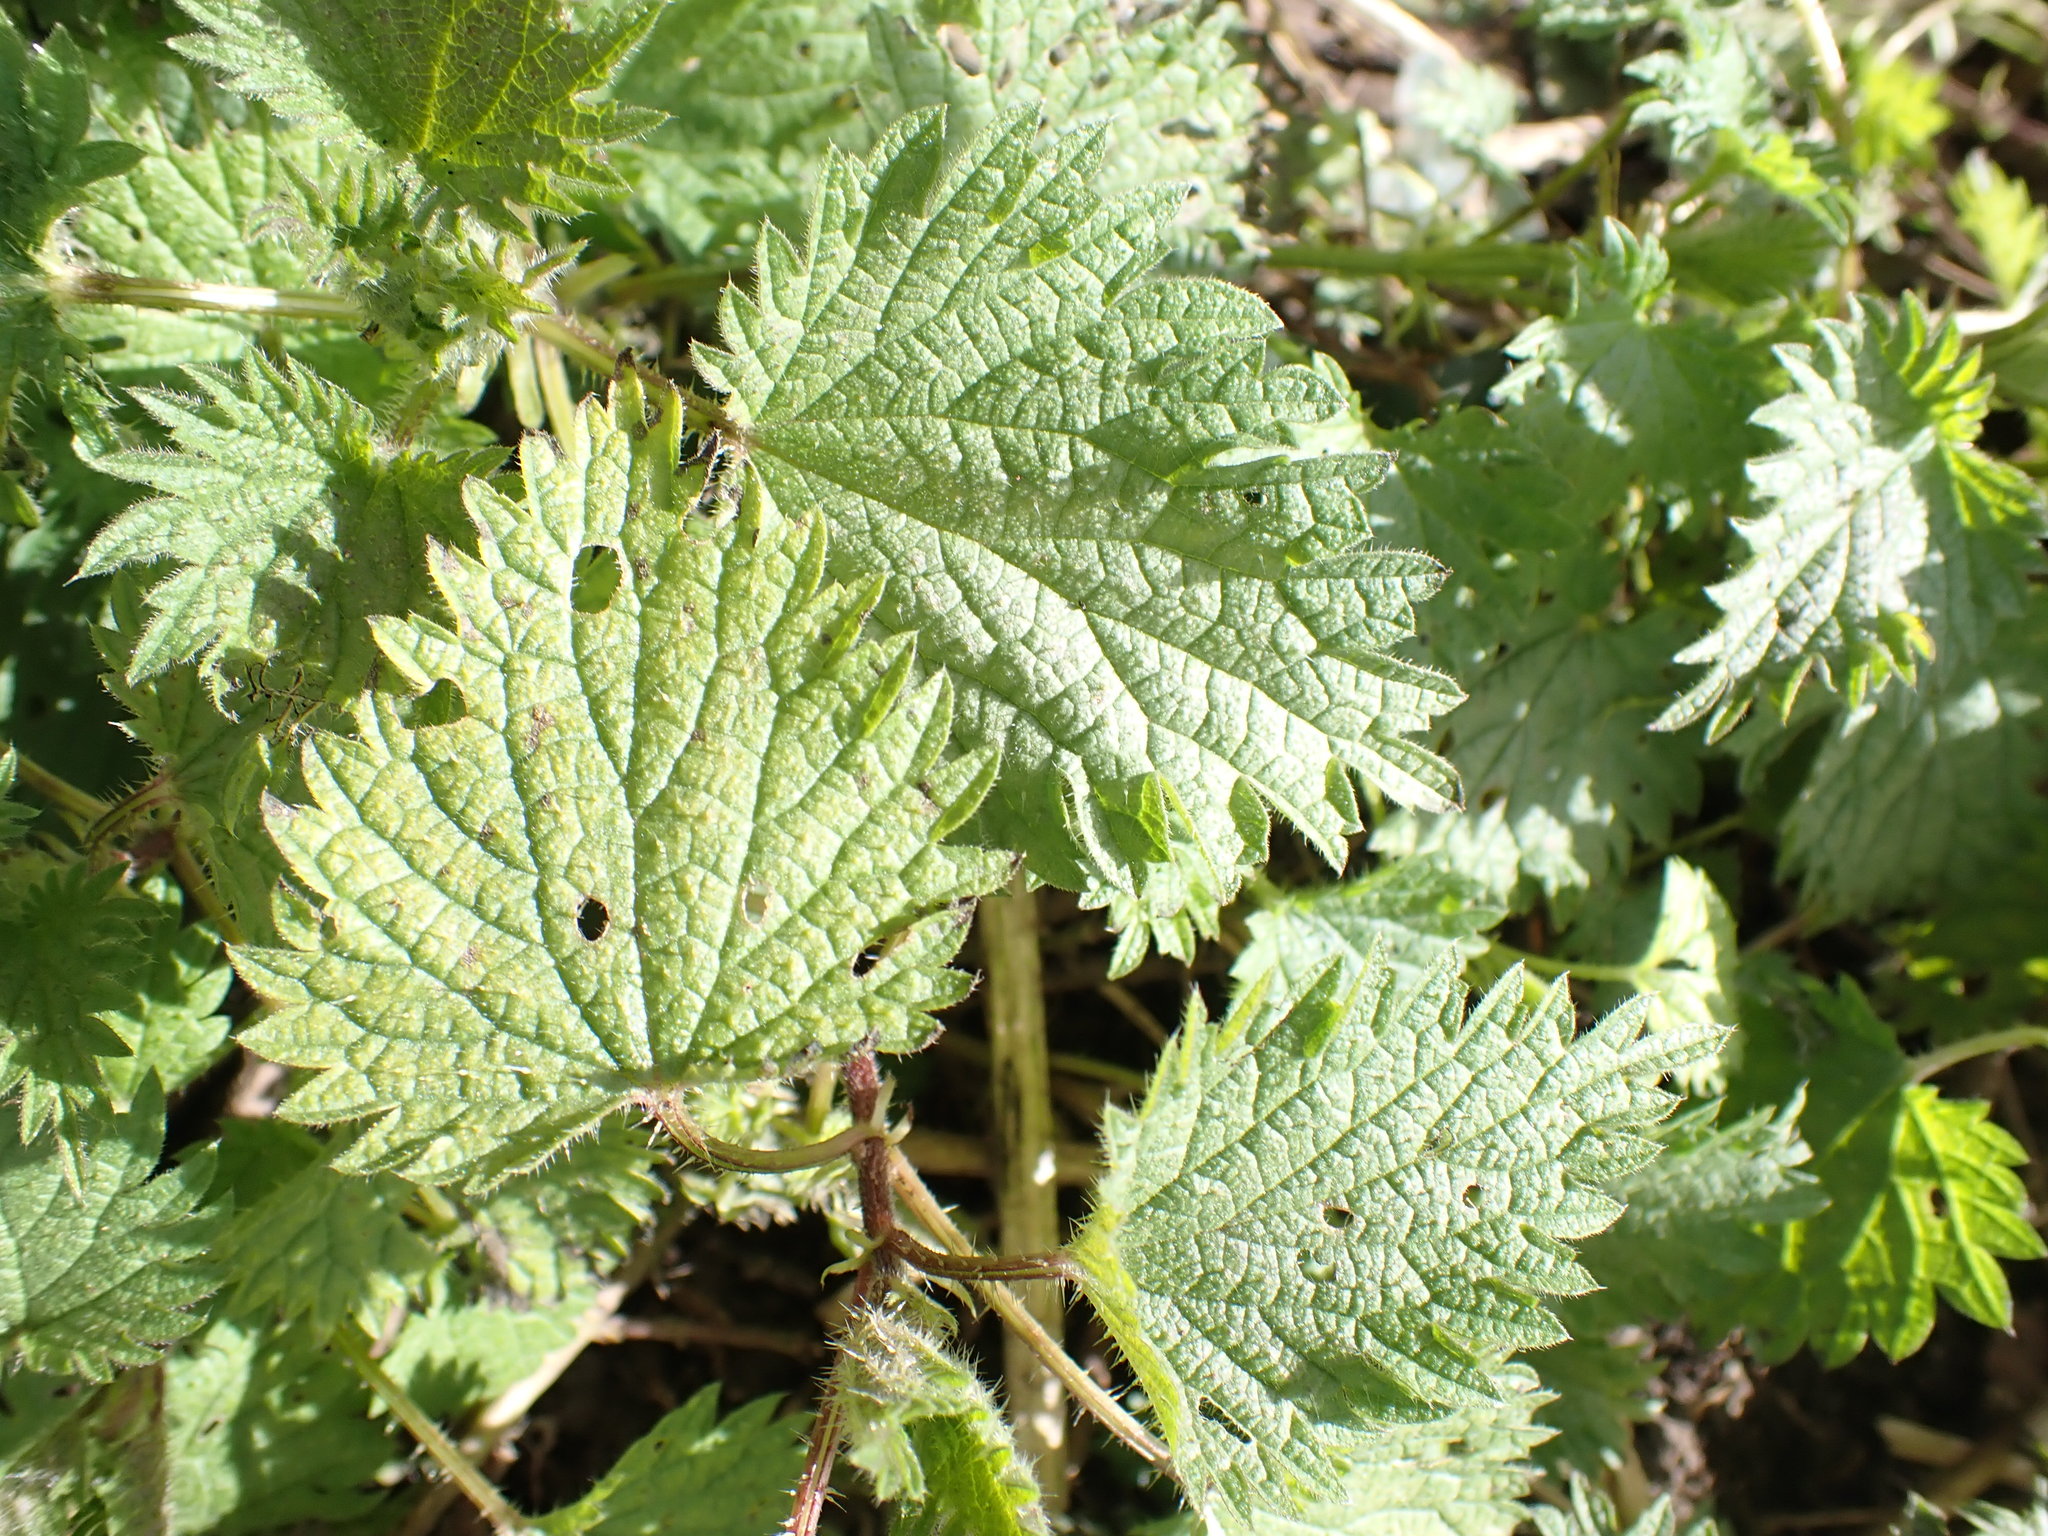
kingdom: Plantae
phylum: Tracheophyta
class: Magnoliopsida
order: Rosales
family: Urticaceae
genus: Urtica
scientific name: Urtica dioica
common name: Common nettle
